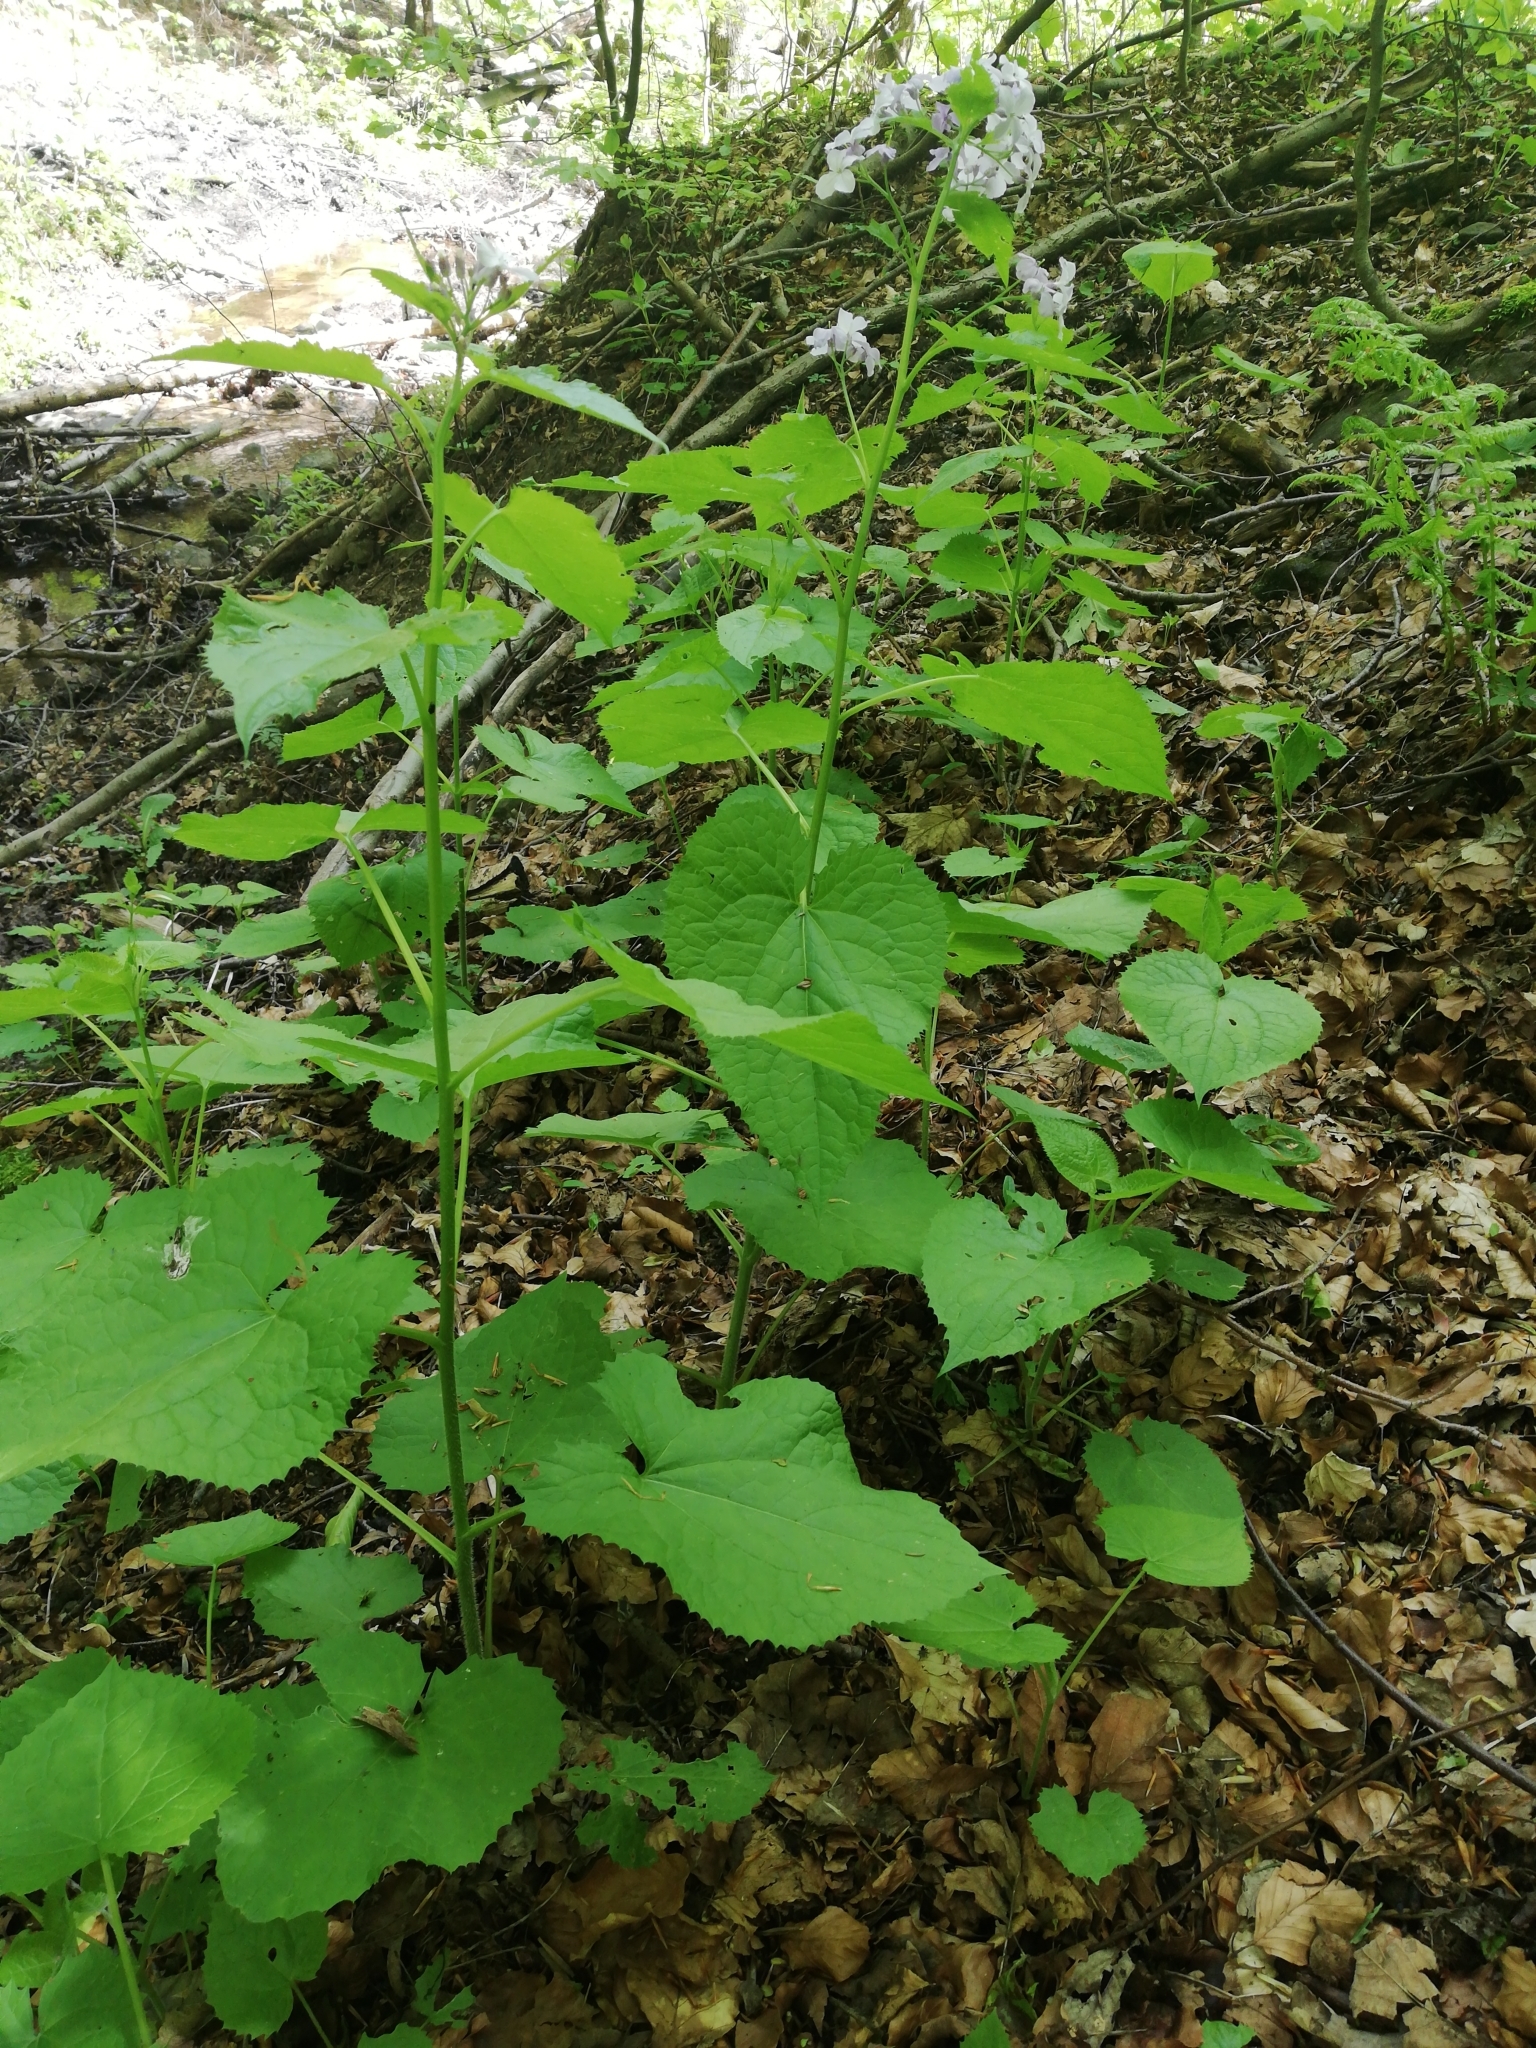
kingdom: Plantae
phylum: Tracheophyta
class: Magnoliopsida
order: Brassicales
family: Brassicaceae
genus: Lunaria
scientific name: Lunaria rediviva
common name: Perennial honesty
